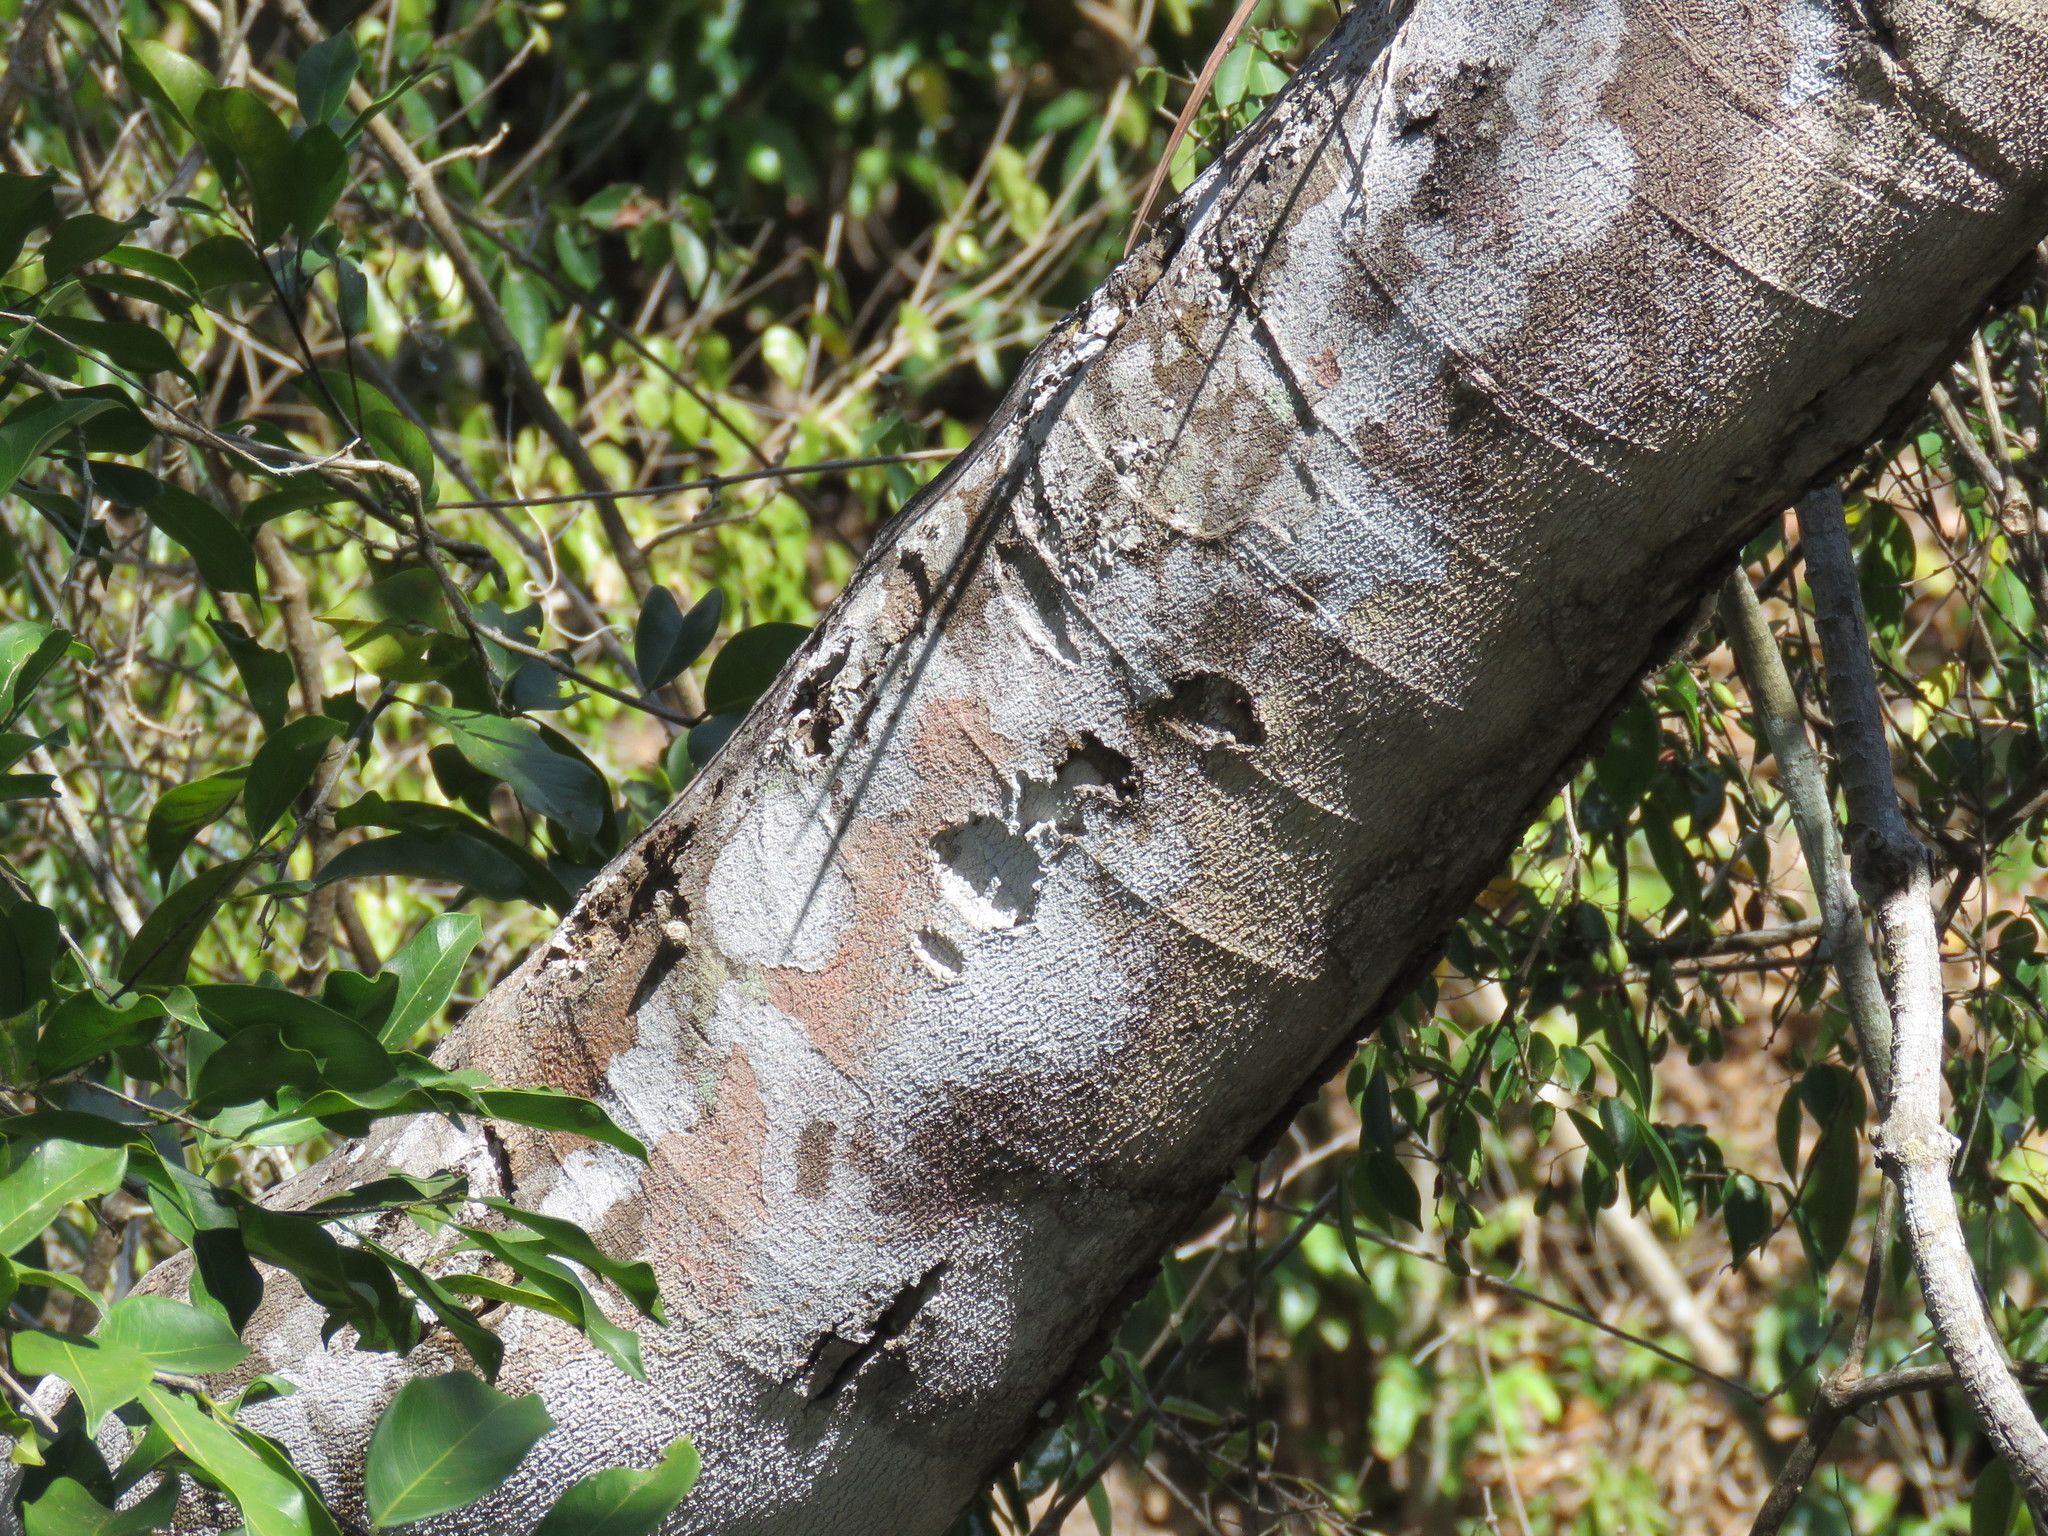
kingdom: Plantae
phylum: Tracheophyta
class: Magnoliopsida
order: Fabales
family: Fabaceae
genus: Swartzia
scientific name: Swartzia simplex
